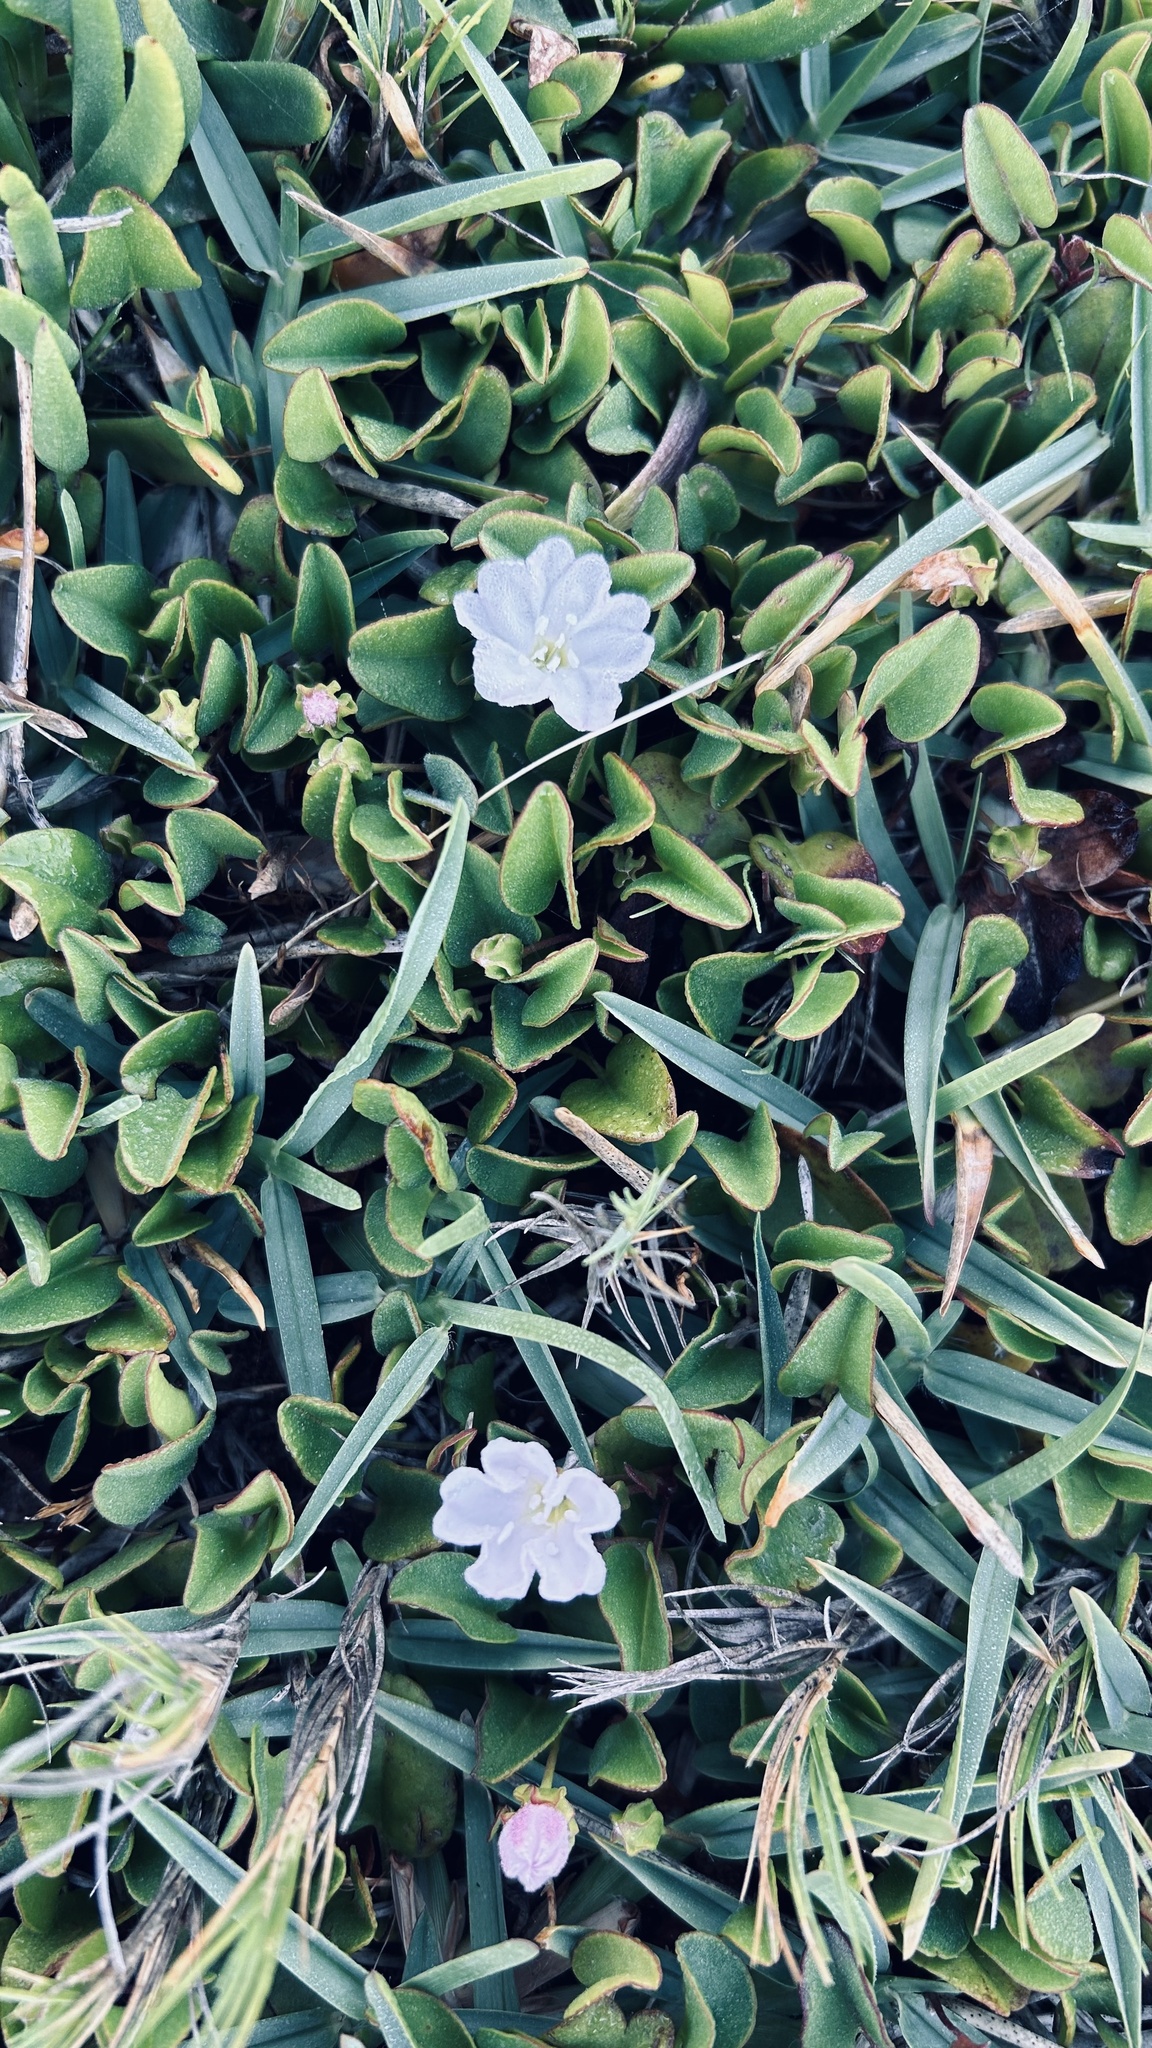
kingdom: Plantae
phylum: Tracheophyta
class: Magnoliopsida
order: Solanales
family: Convolvulaceae
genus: Falkia
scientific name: Falkia repens
